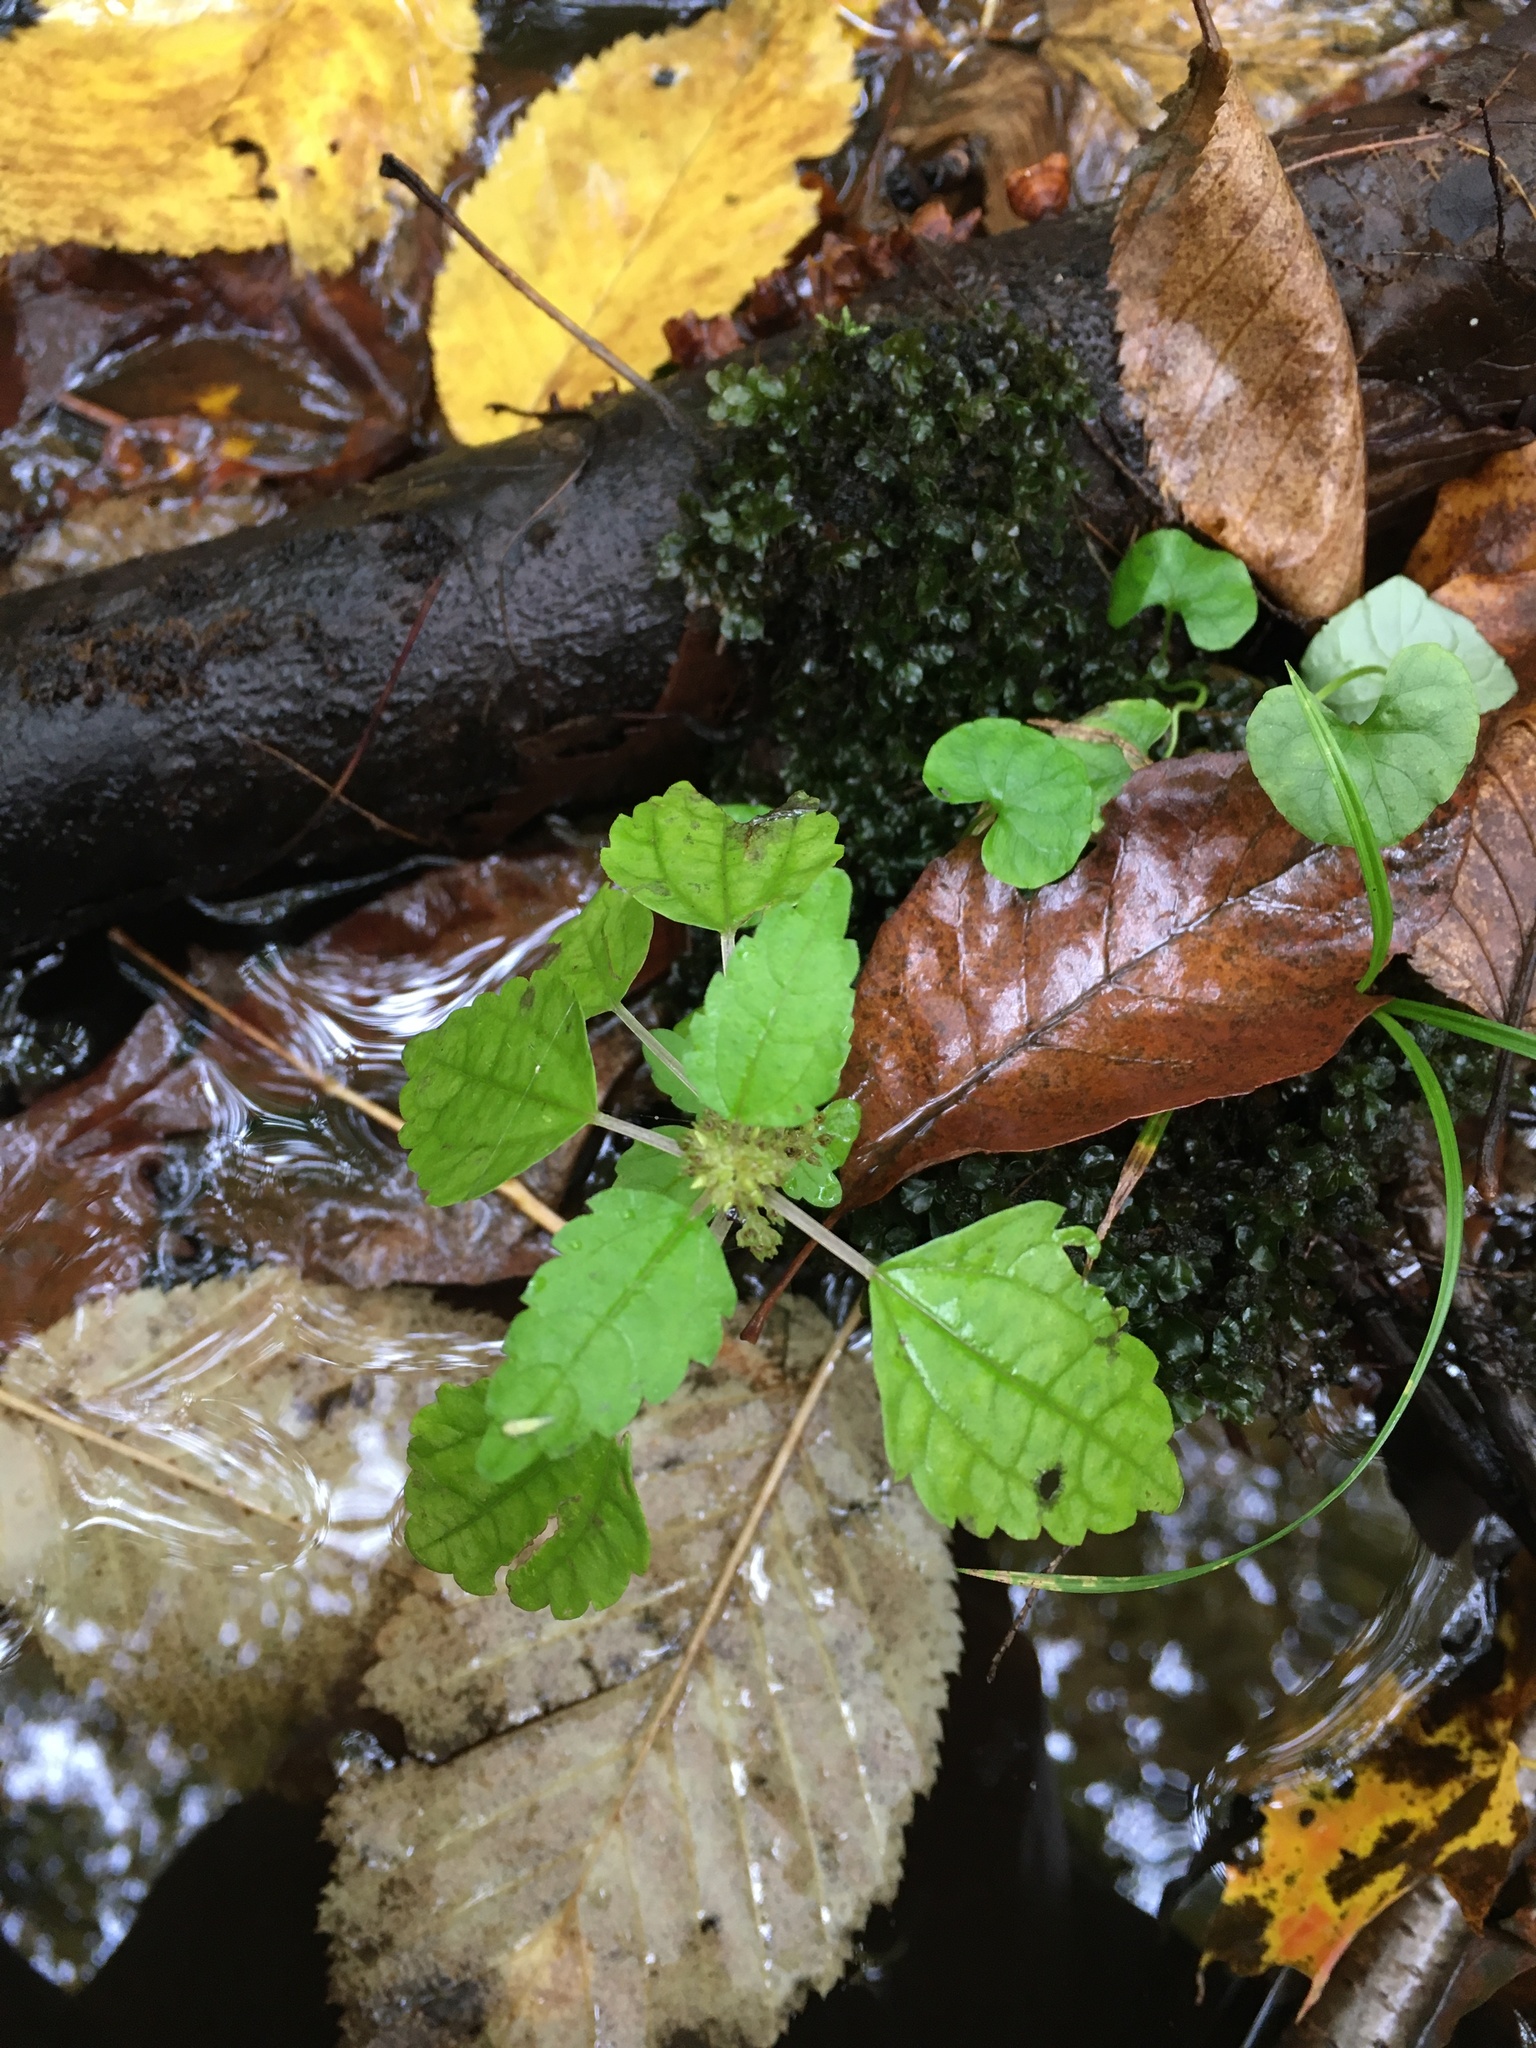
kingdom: Plantae
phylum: Tracheophyta
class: Magnoliopsida
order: Rosales
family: Urticaceae
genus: Pilea
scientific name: Pilea pumila
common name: Clearweed
